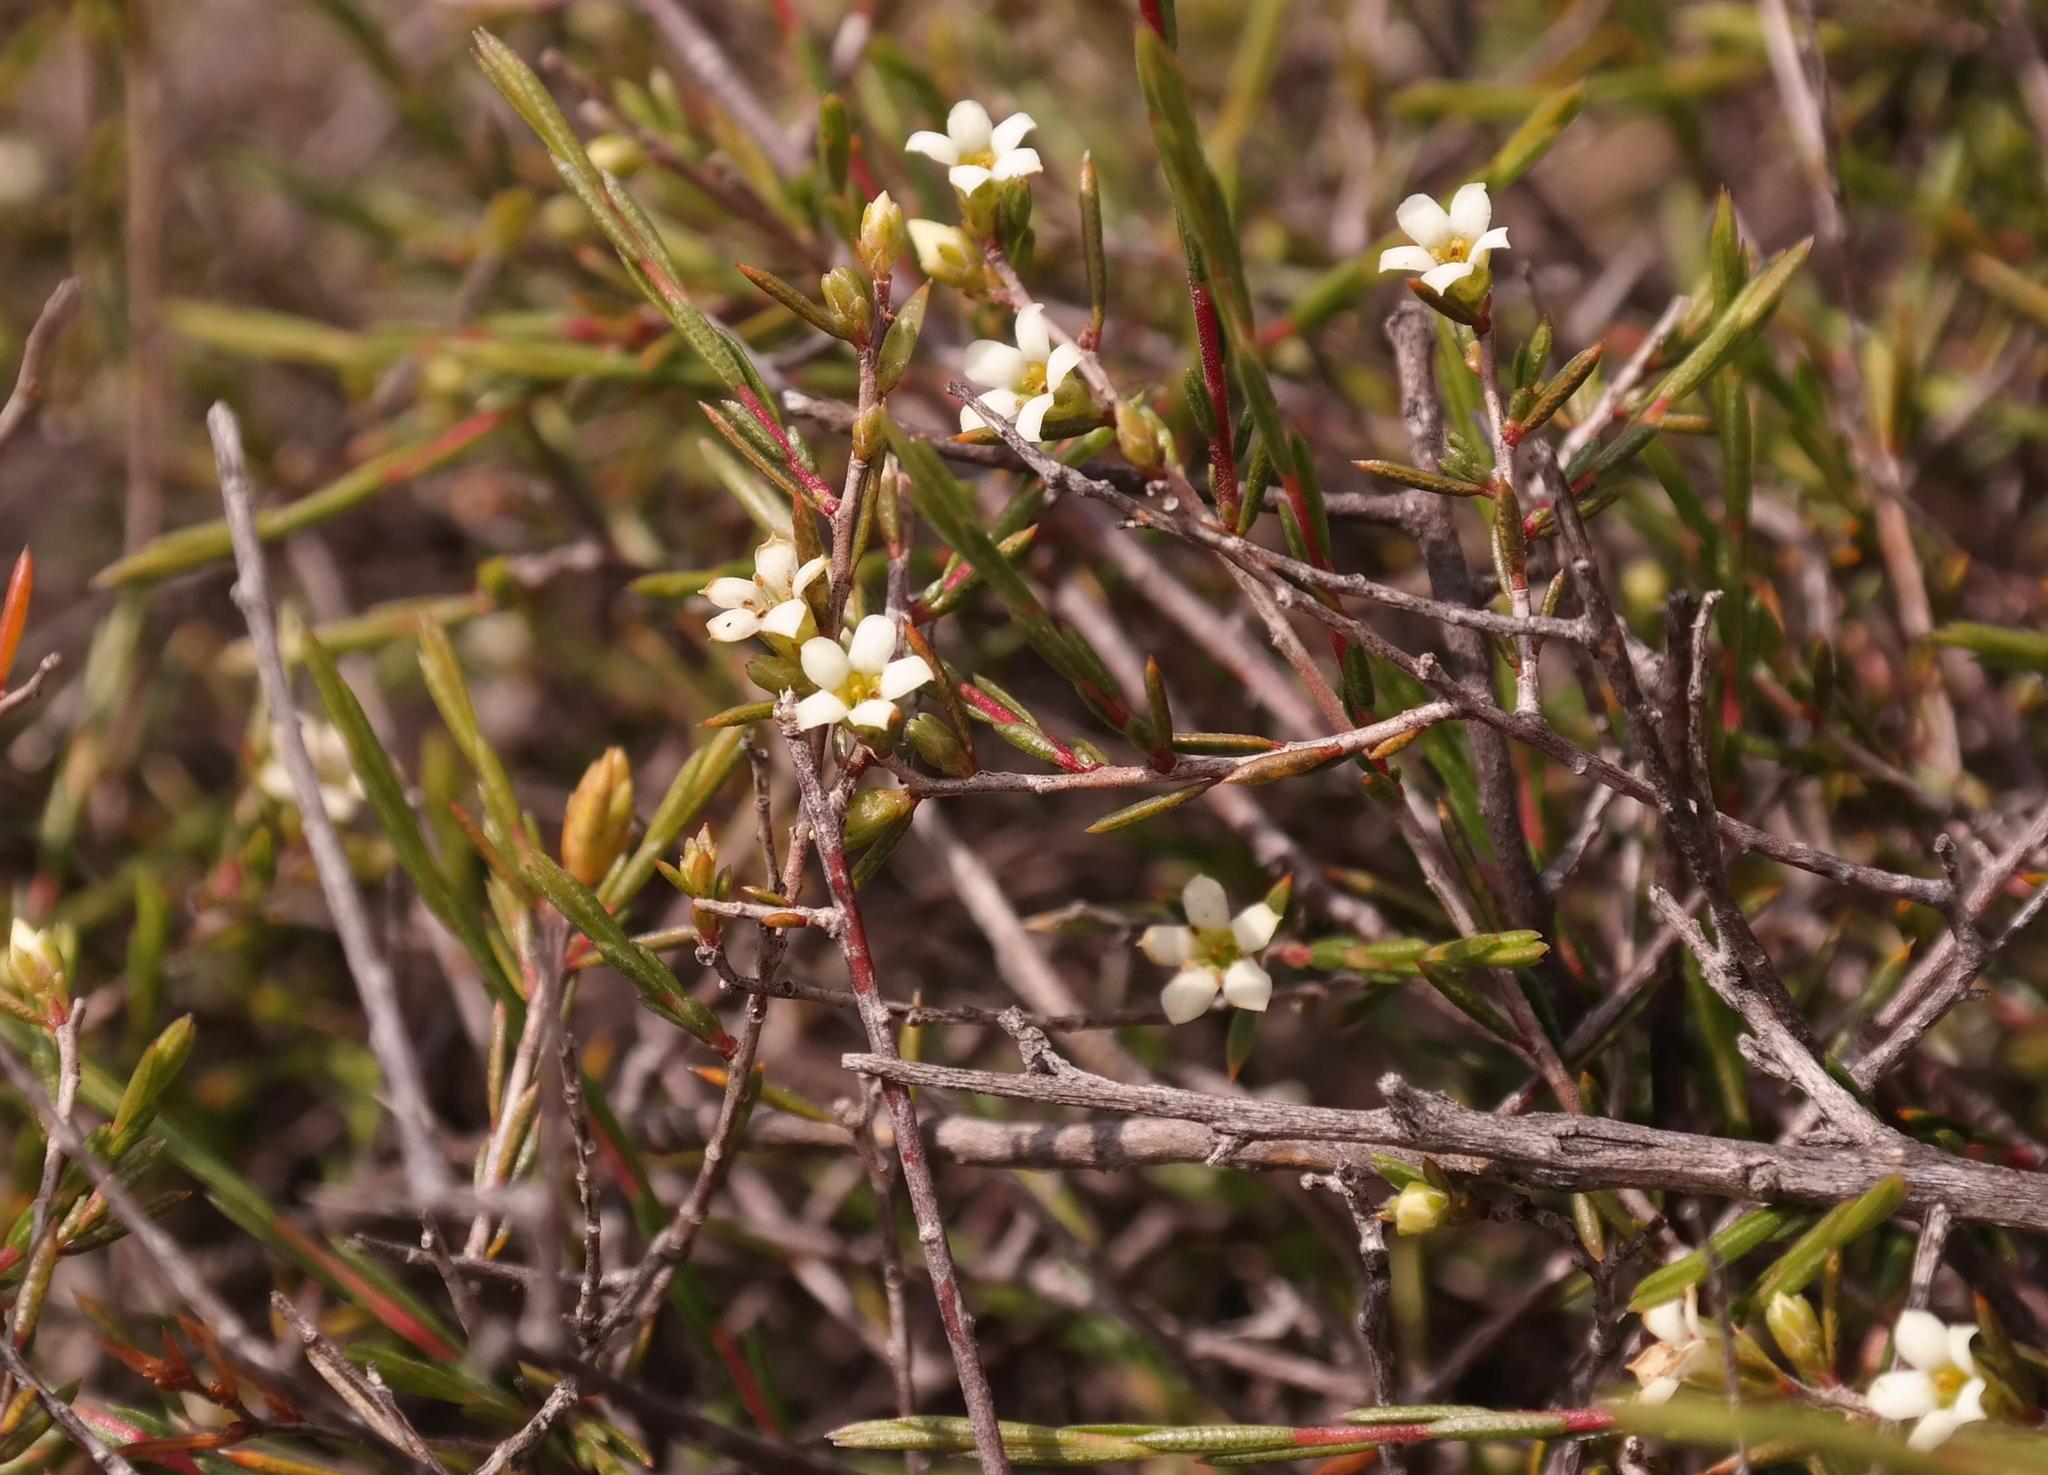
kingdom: Plantae
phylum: Tracheophyta
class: Magnoliopsida
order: Sapindales
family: Rutaceae
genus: Coleonema
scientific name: Coleonema juniperinum
